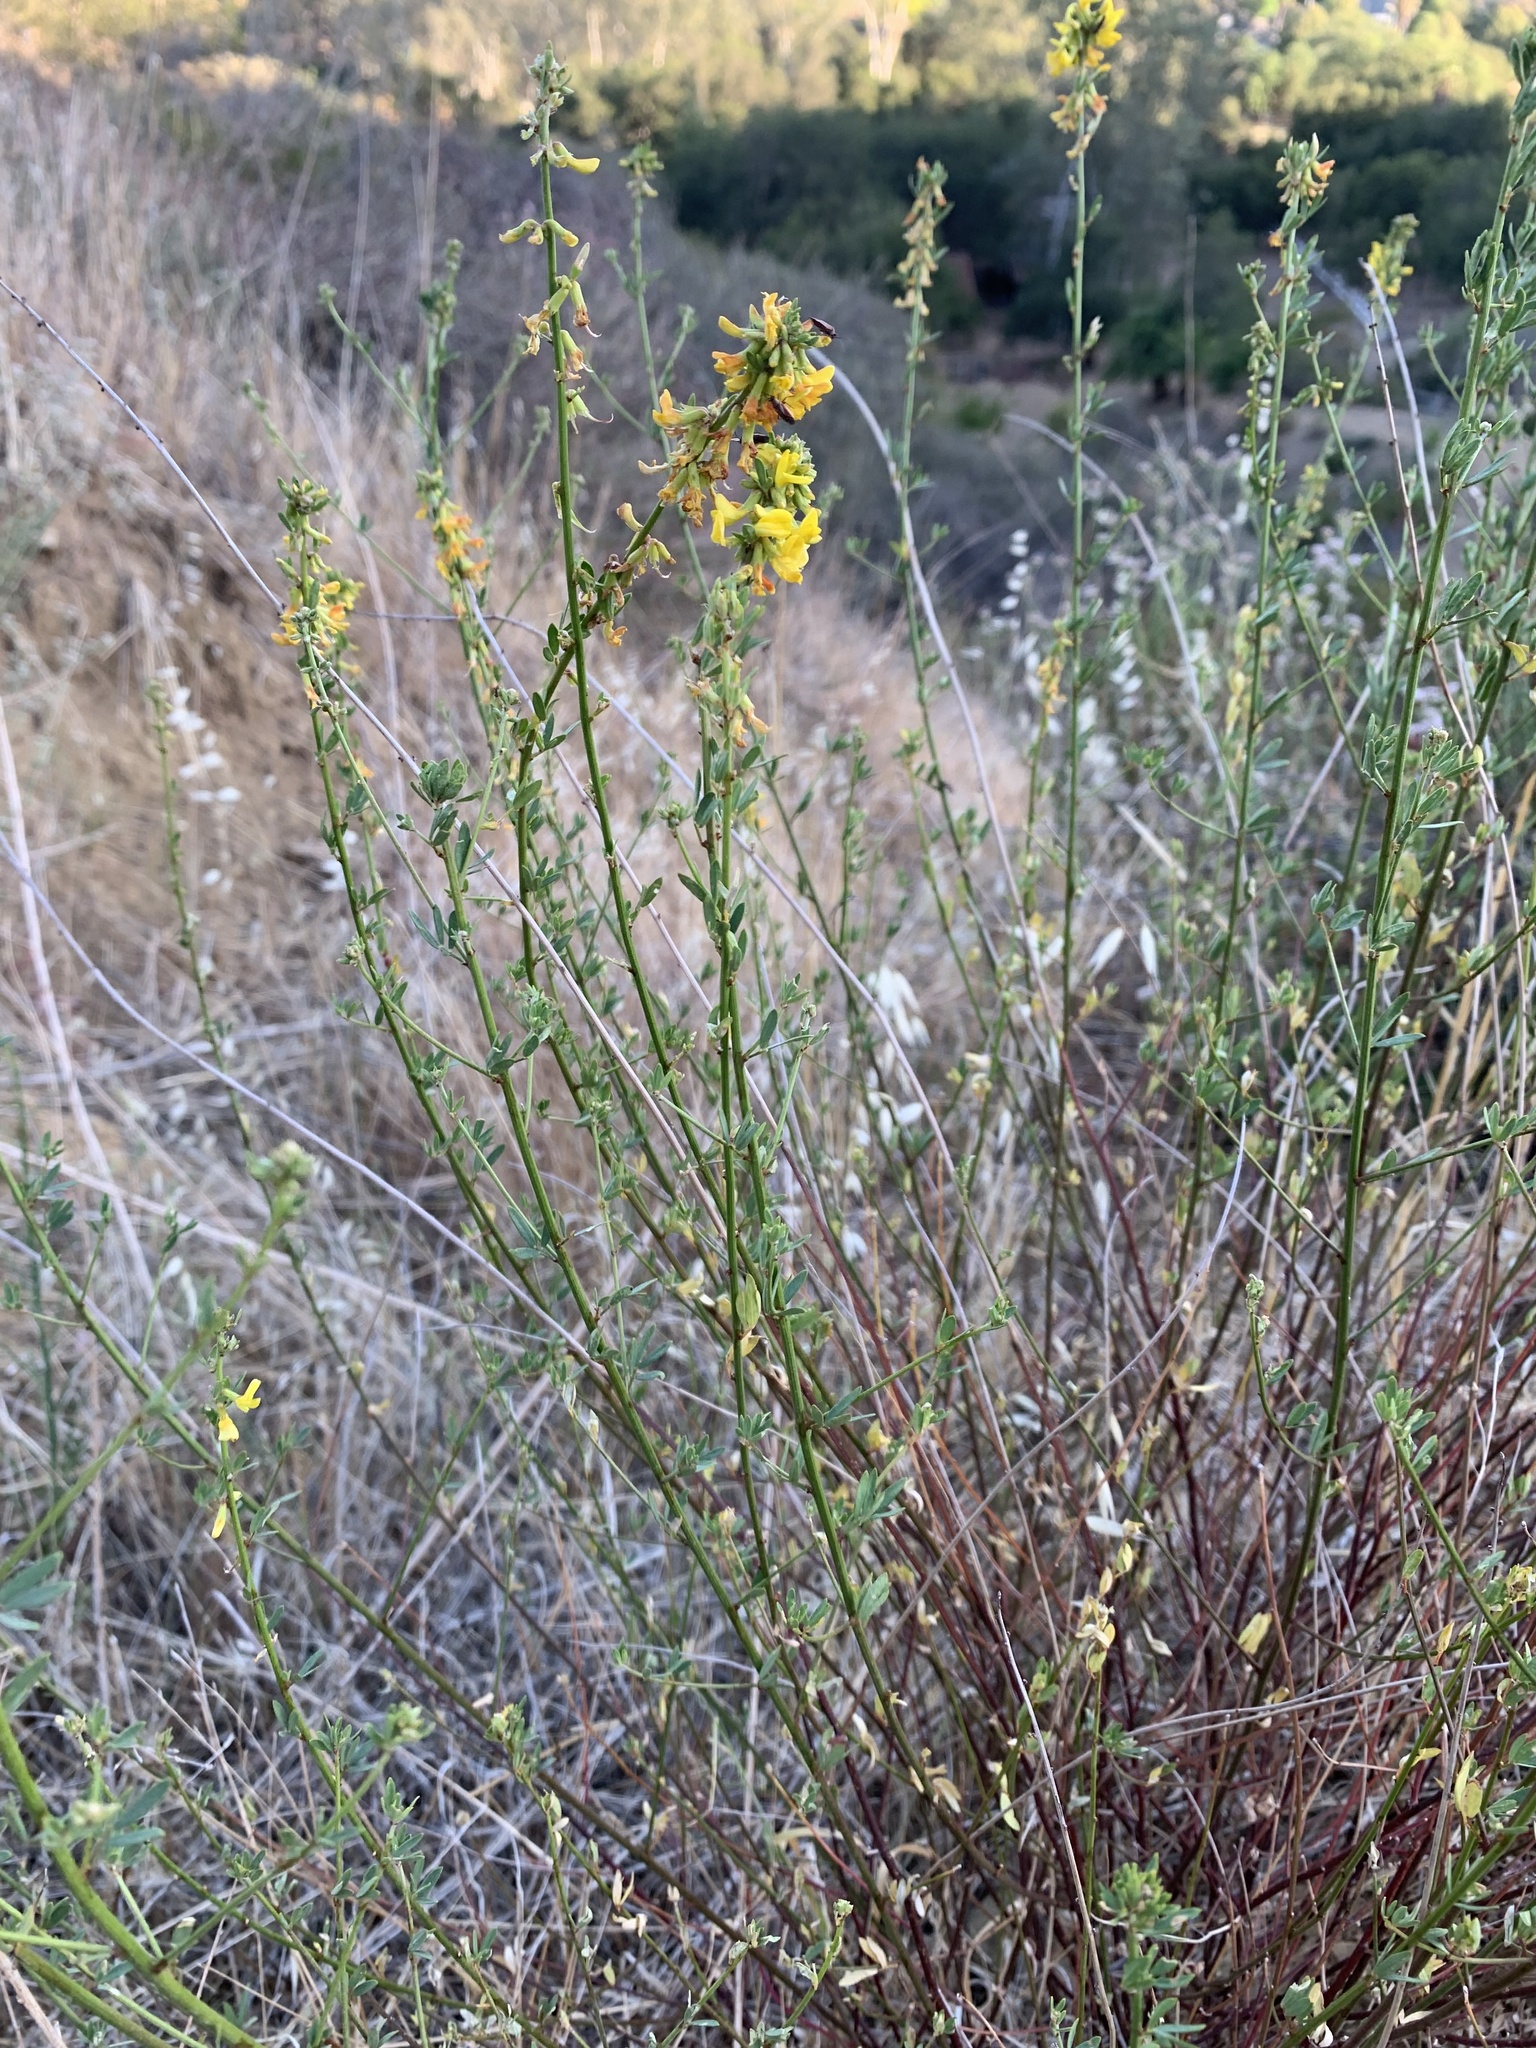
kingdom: Plantae
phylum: Tracheophyta
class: Magnoliopsida
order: Fabales
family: Fabaceae
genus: Acmispon
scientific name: Acmispon glaber
